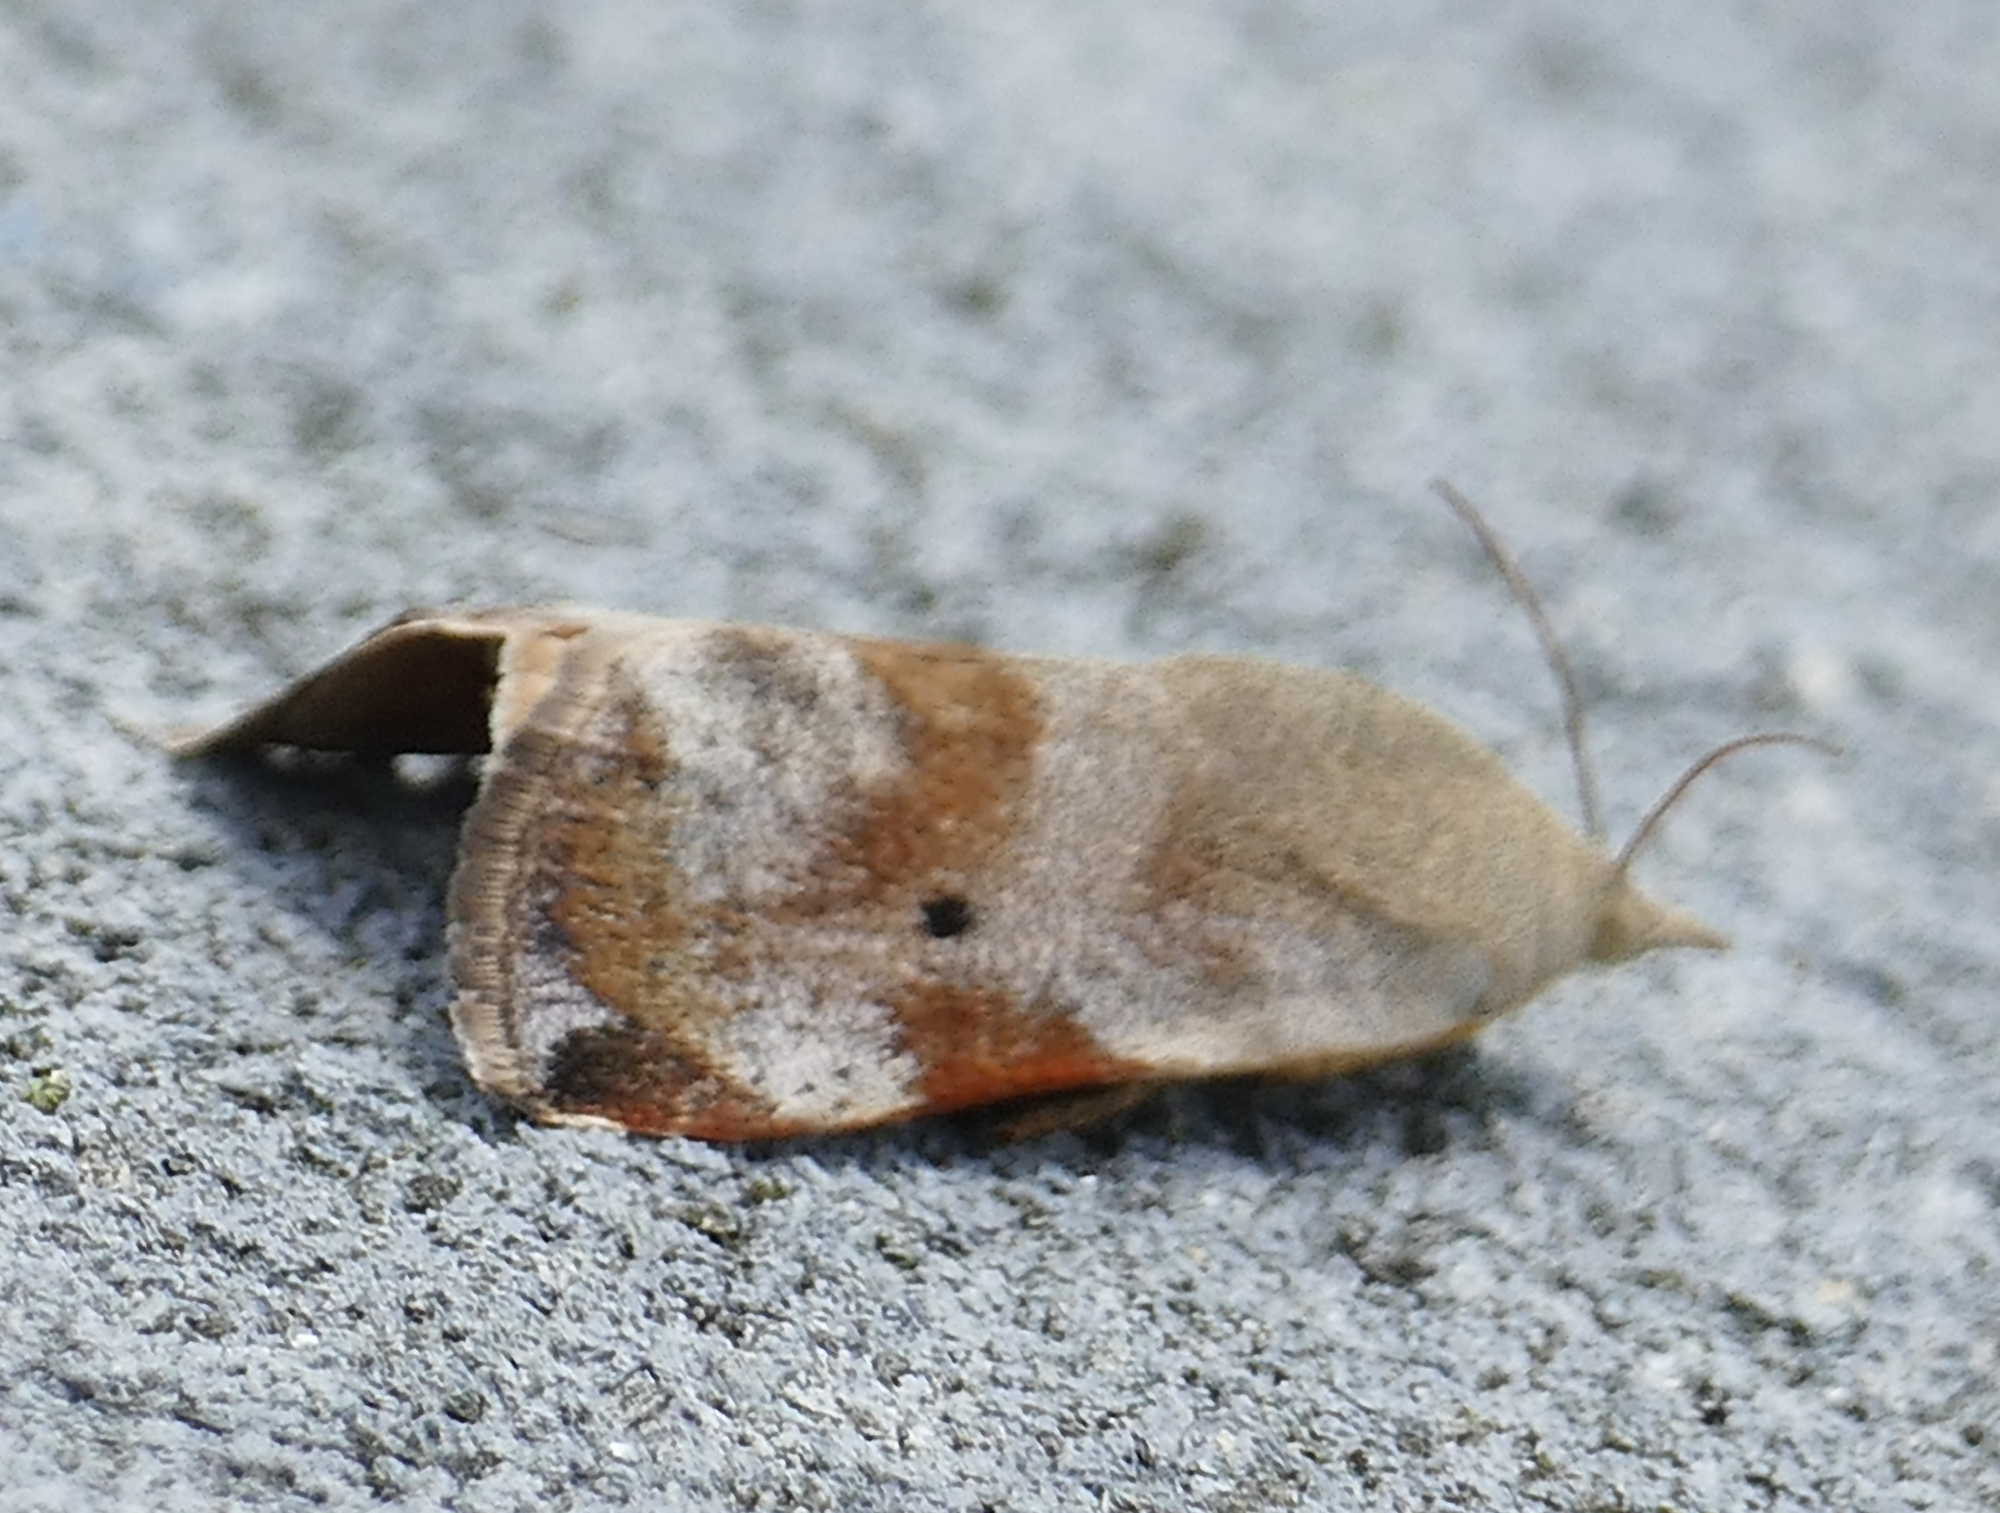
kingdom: Animalia
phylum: Arthropoda
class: Insecta
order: Lepidoptera
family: Hyblaeidae
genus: Hyblaea
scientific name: Hyblaea puera
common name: Teak defoliator moth
